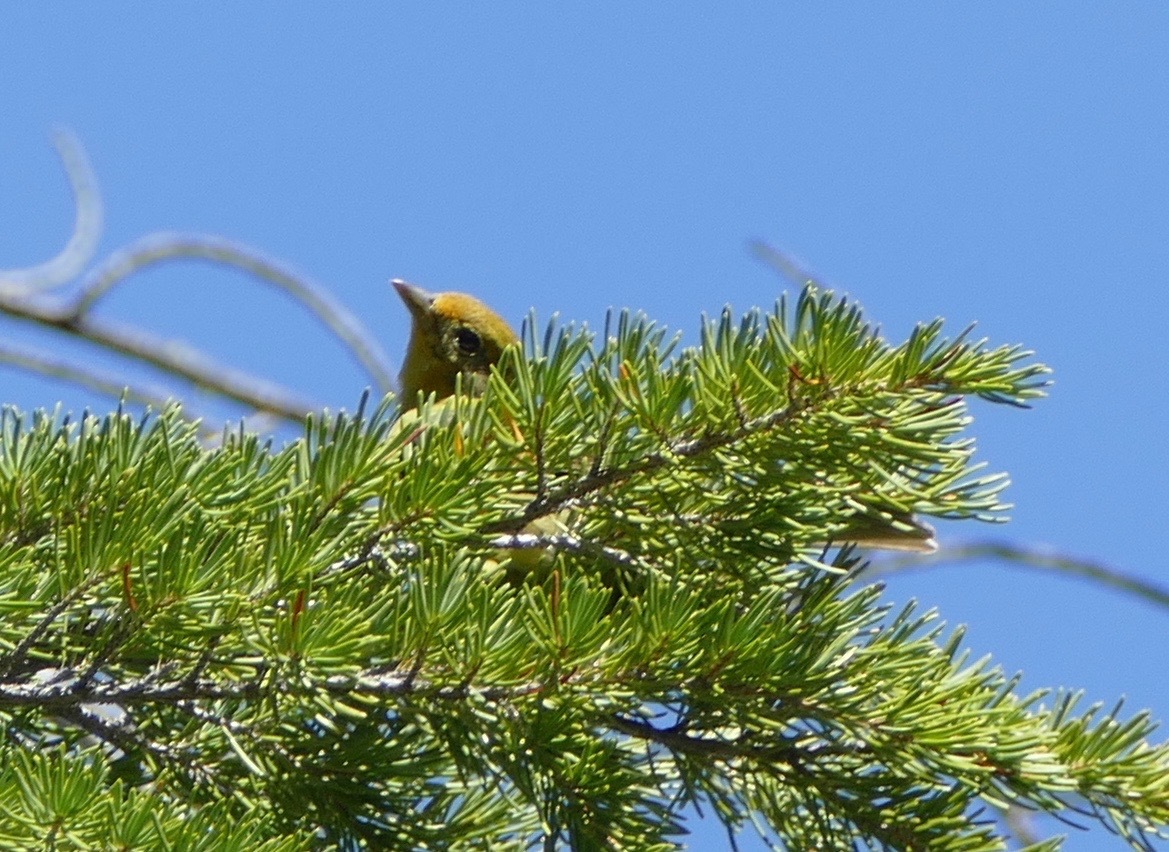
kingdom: Animalia
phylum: Chordata
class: Aves
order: Passeriformes
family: Cardinalidae
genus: Piranga
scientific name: Piranga ludoviciana
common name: Western tanager
